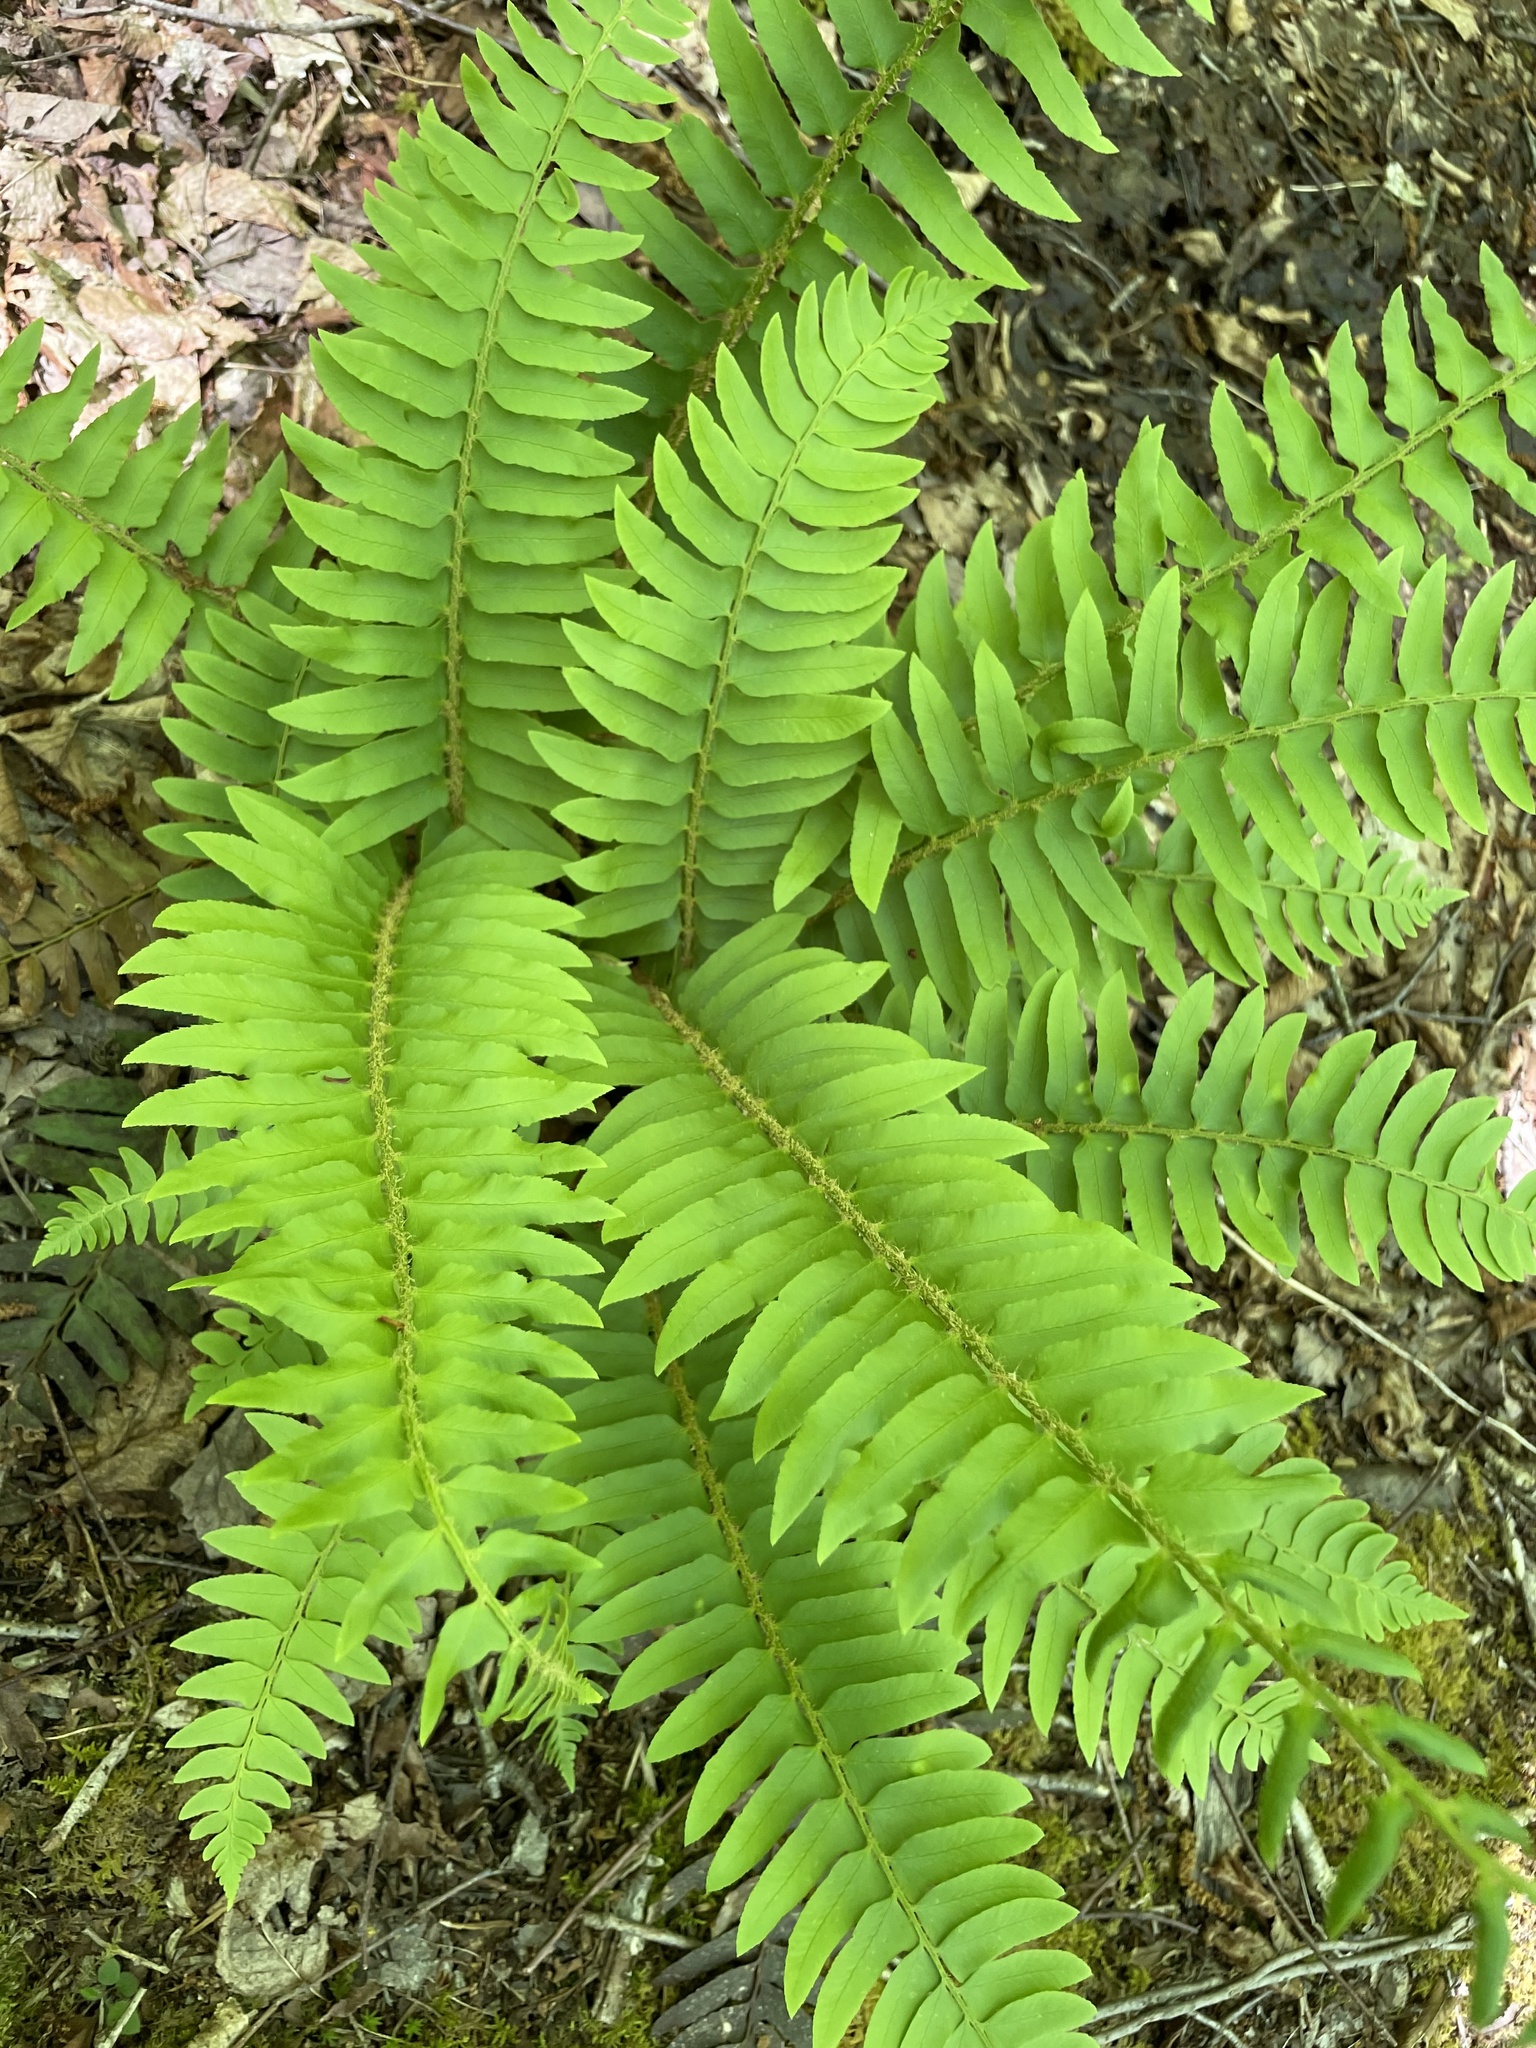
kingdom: Plantae
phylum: Tracheophyta
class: Polypodiopsida
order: Polypodiales
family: Dryopteridaceae
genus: Polystichum
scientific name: Polystichum acrostichoides
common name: Christmas fern
